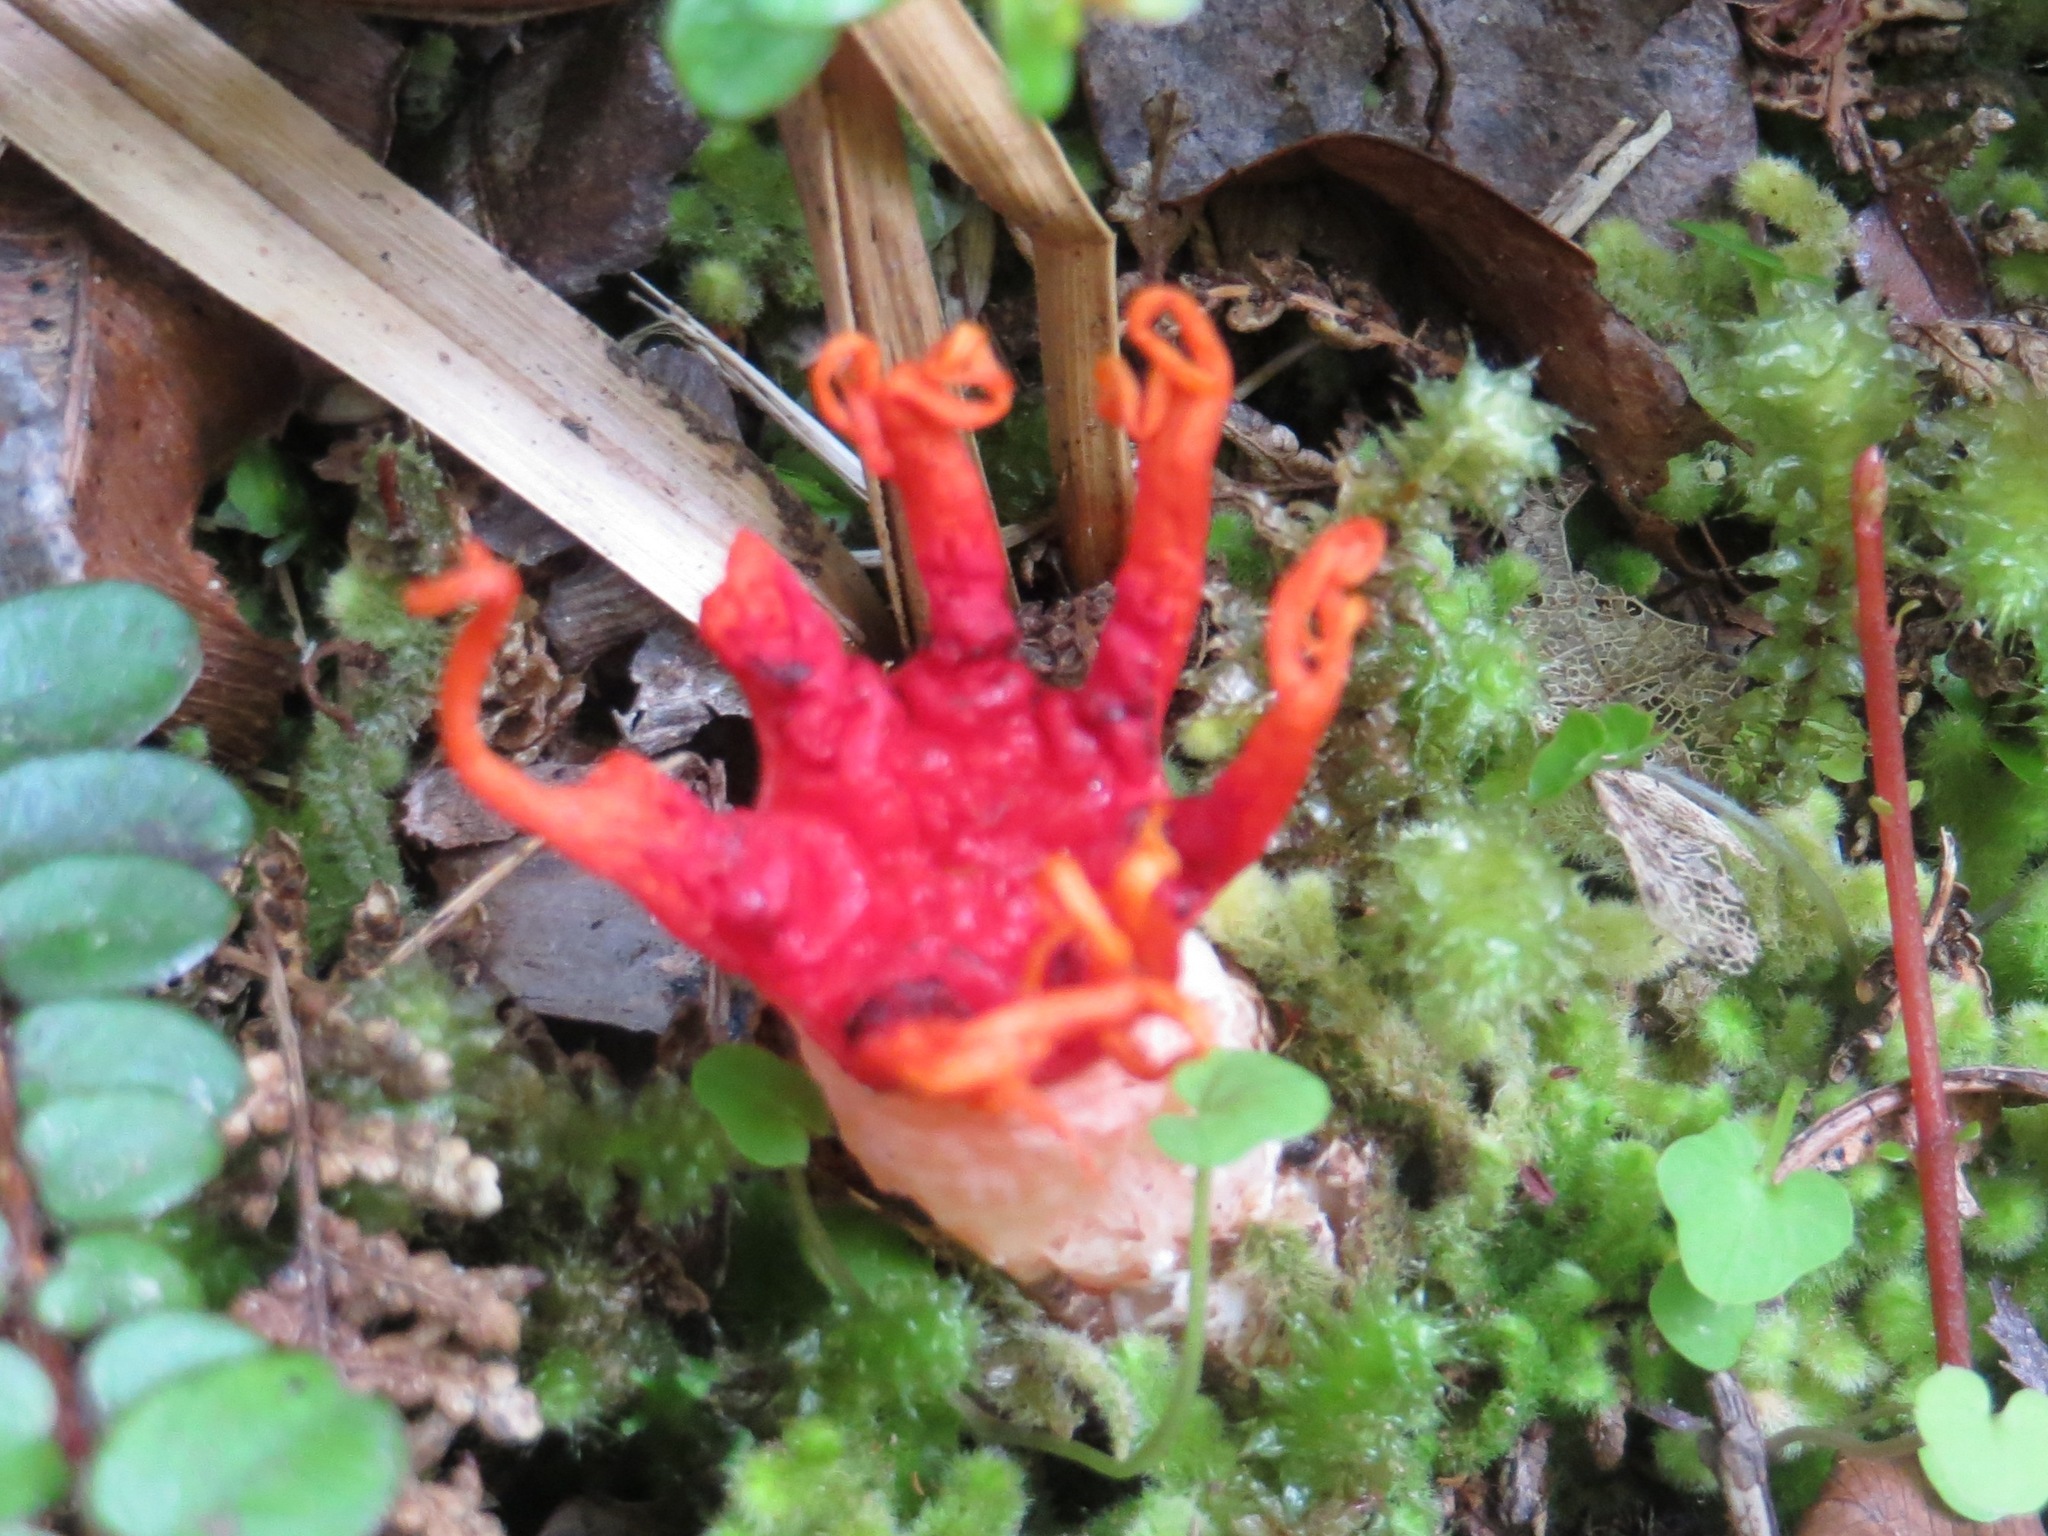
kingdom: Fungi
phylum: Basidiomycota
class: Agaricomycetes
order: Phallales
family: Phallaceae
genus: Aseroe
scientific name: Aseroe rubra
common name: Starfish fungus
